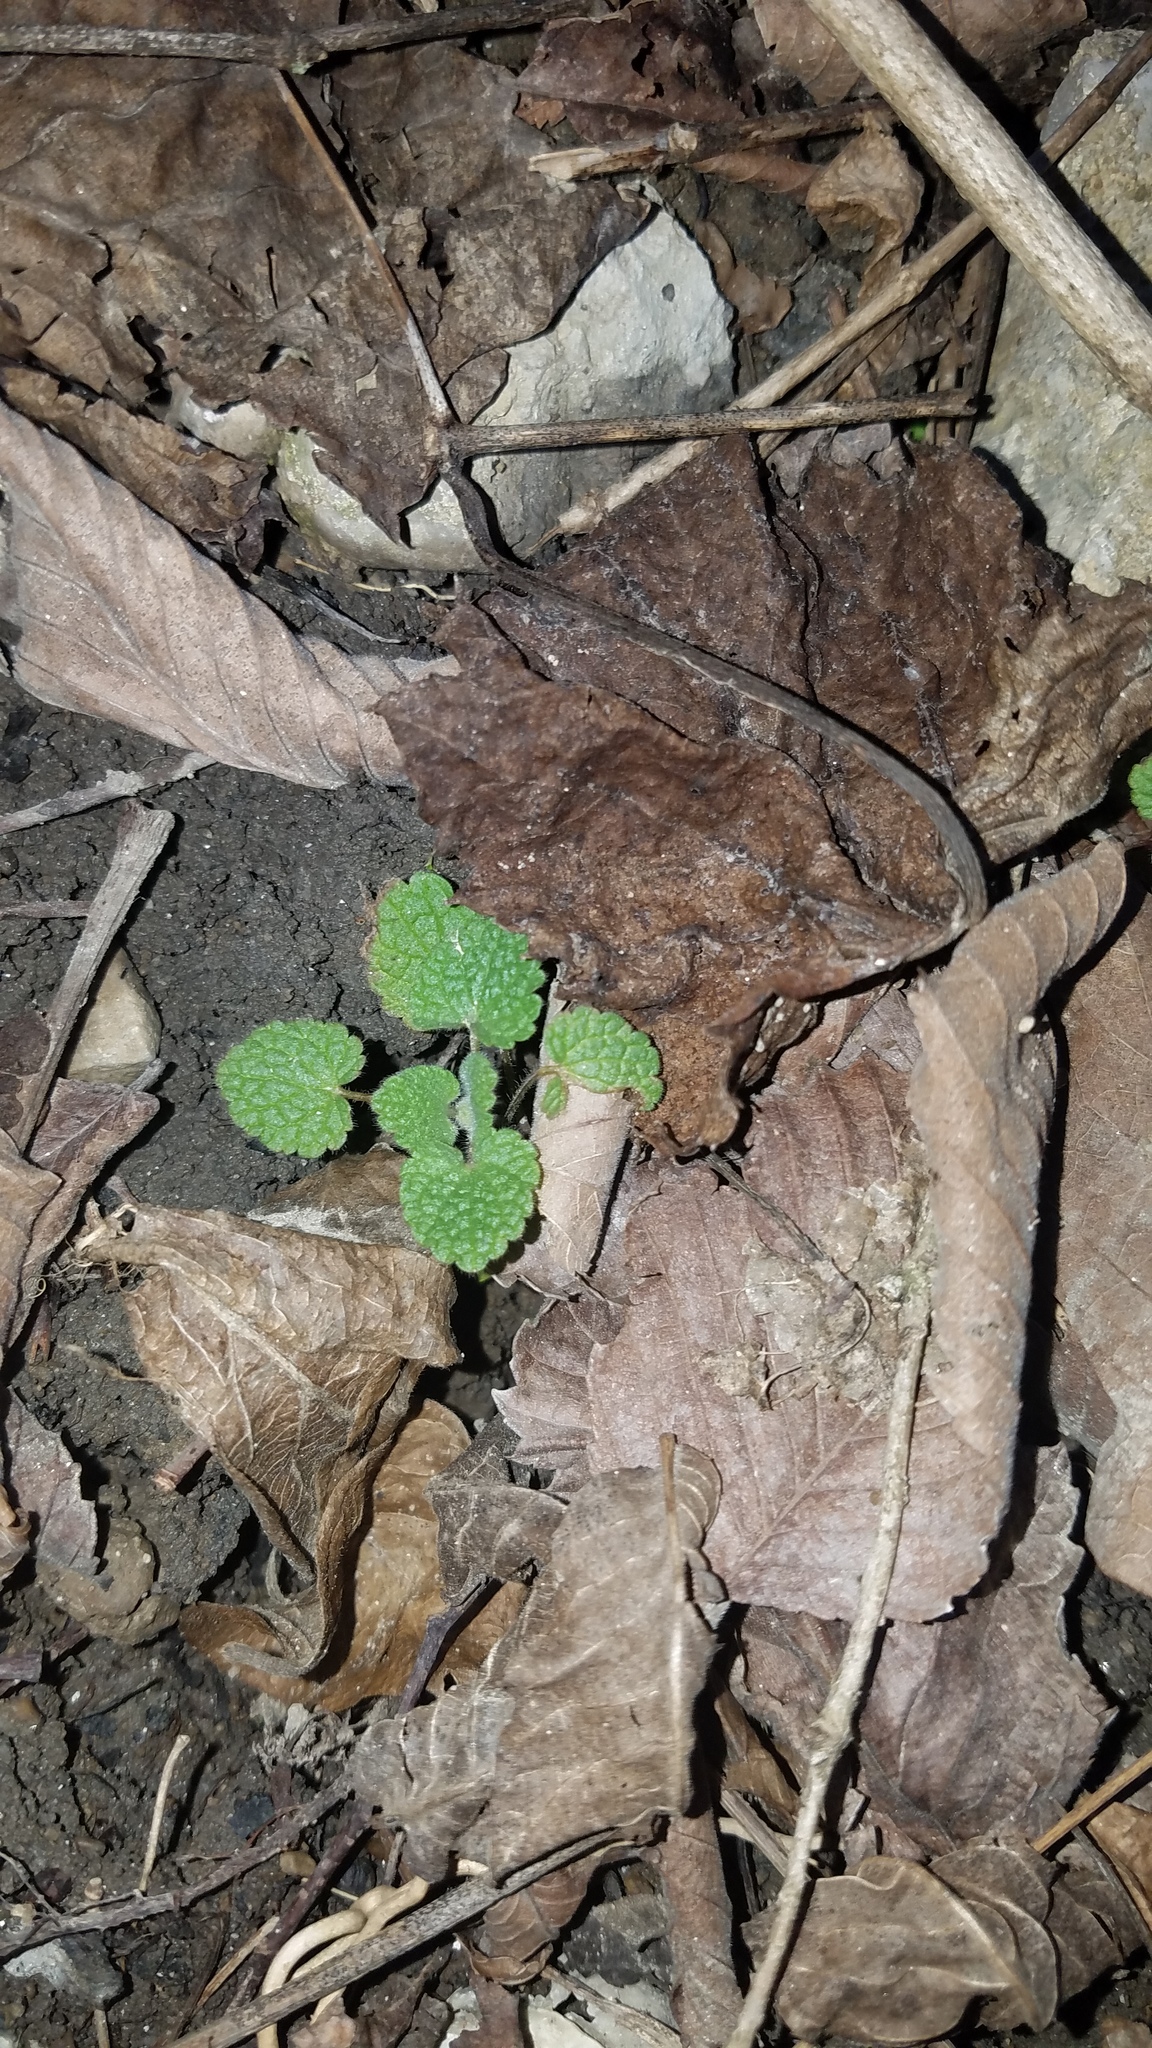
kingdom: Plantae
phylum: Tracheophyta
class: Magnoliopsida
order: Lamiales
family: Lamiaceae
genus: Lamium
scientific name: Lamium purpureum
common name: Red dead-nettle
